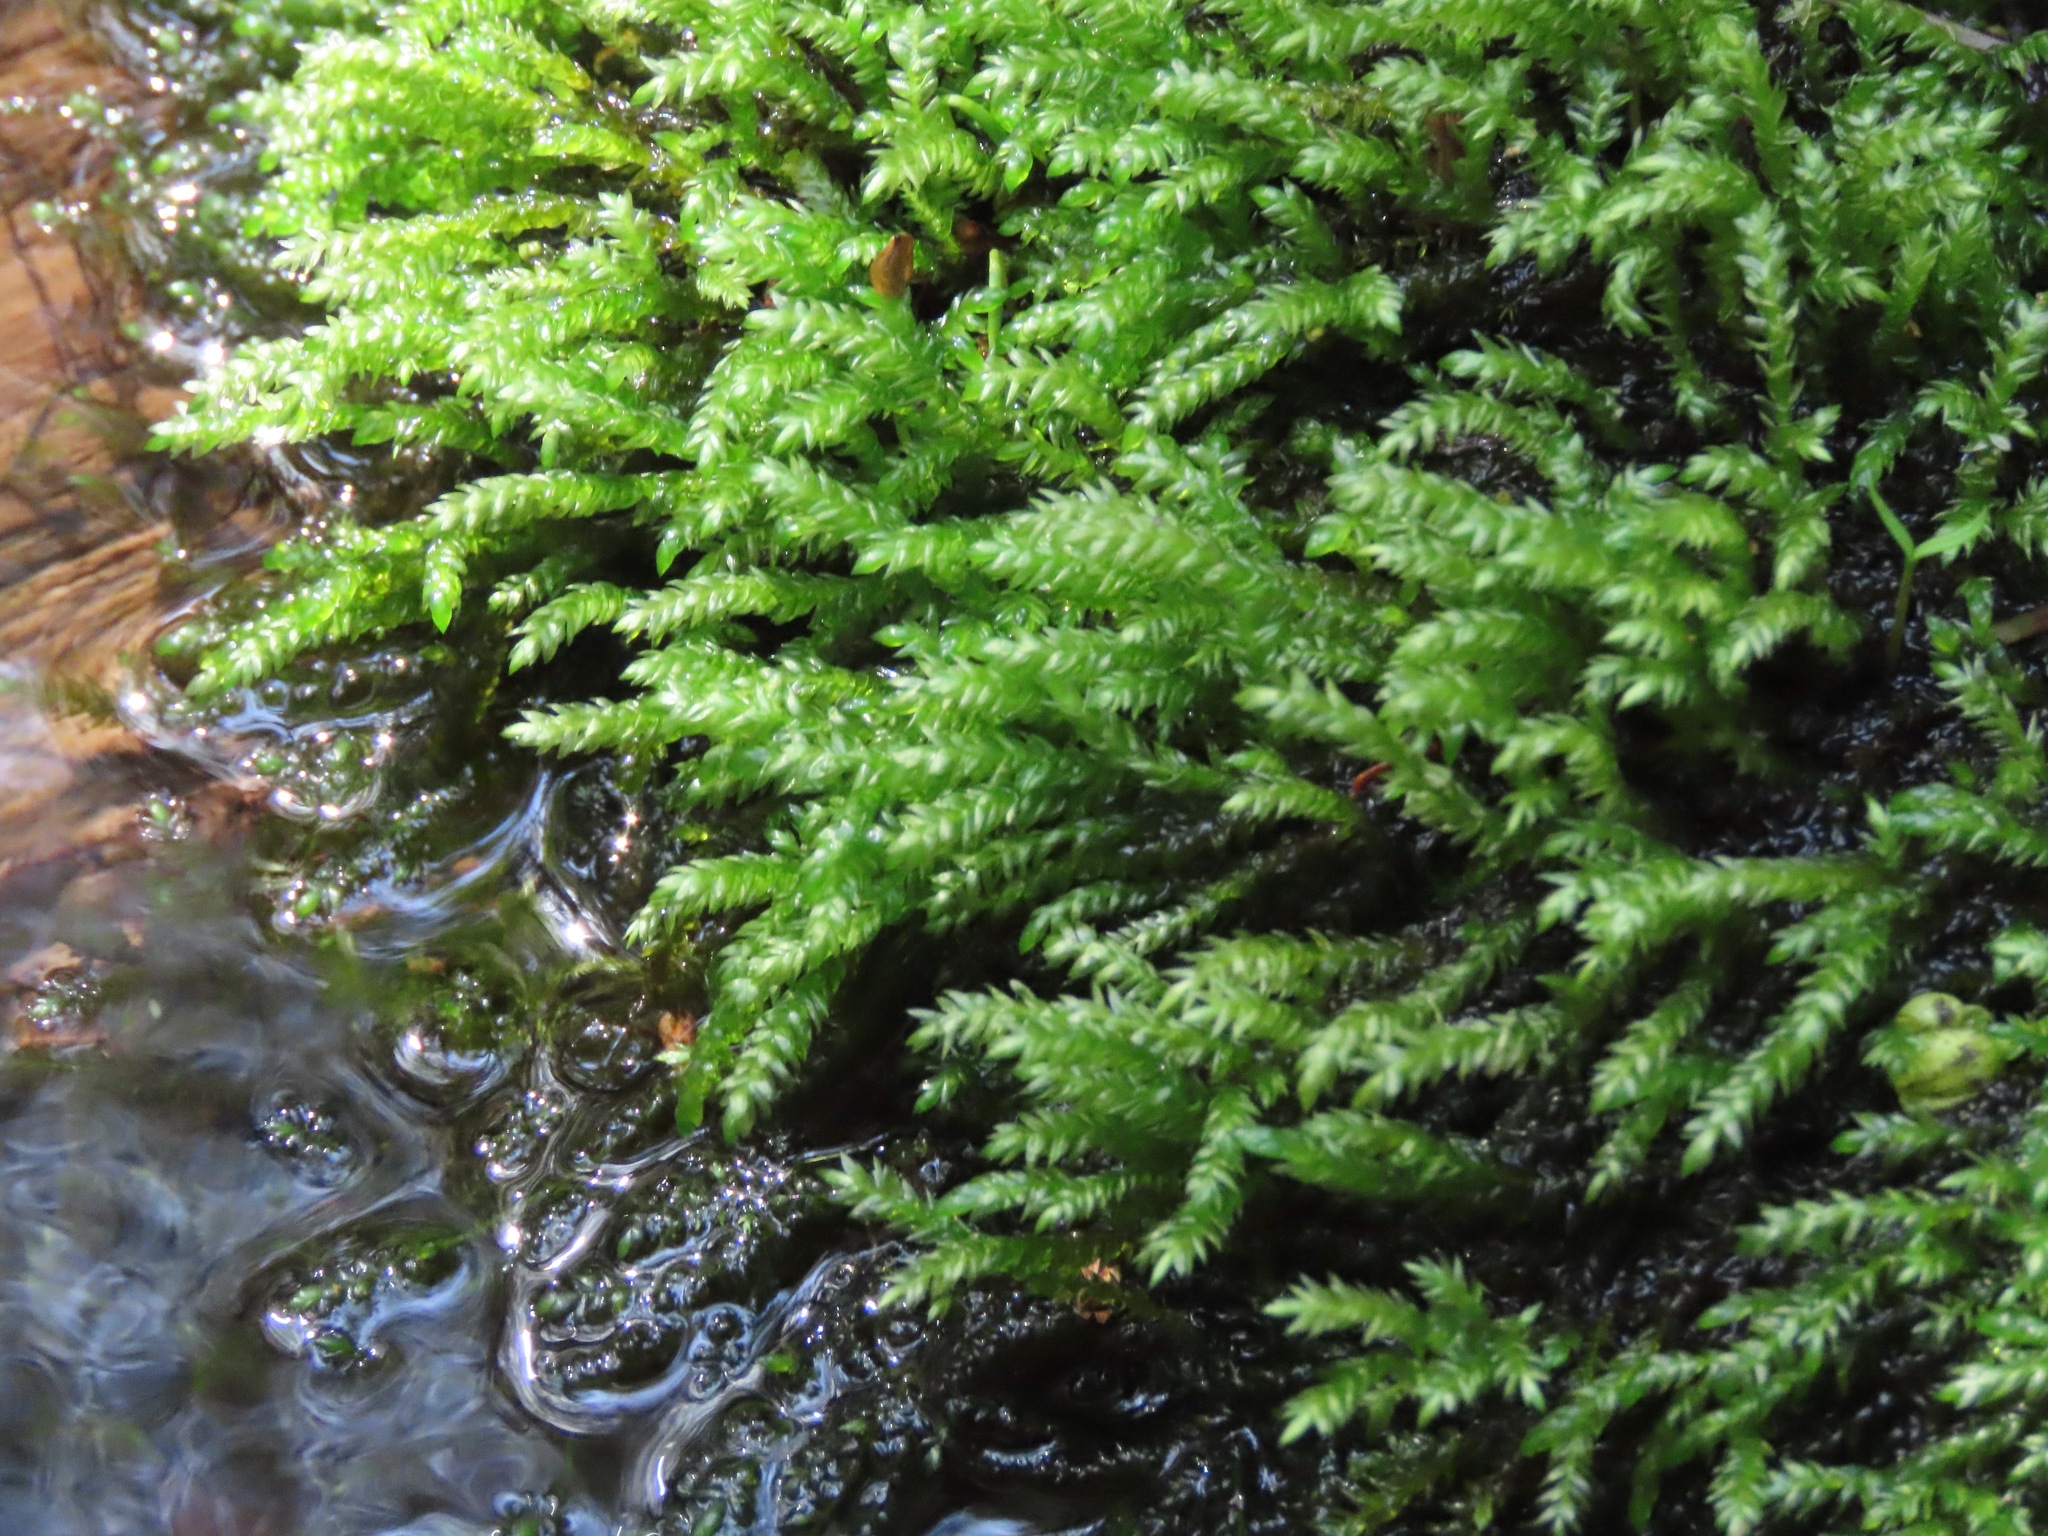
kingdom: Plantae
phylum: Bryophyta
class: Bryopsida
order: Hypnales
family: Brachytheciaceae
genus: Scleropodium
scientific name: Scleropodium obtusifolium
